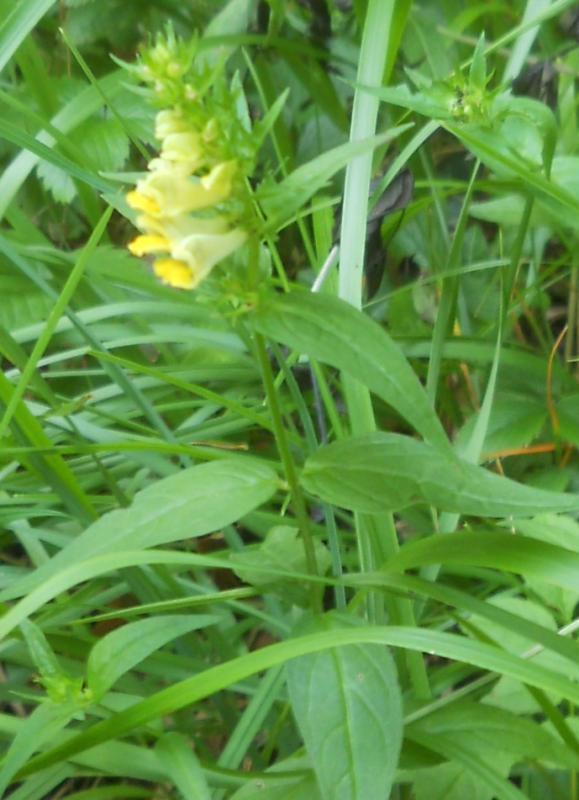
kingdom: Plantae
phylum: Tracheophyta
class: Magnoliopsida
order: Lamiales
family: Orobanchaceae
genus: Melampyrum
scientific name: Melampyrum pratense
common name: Common cow-wheat
